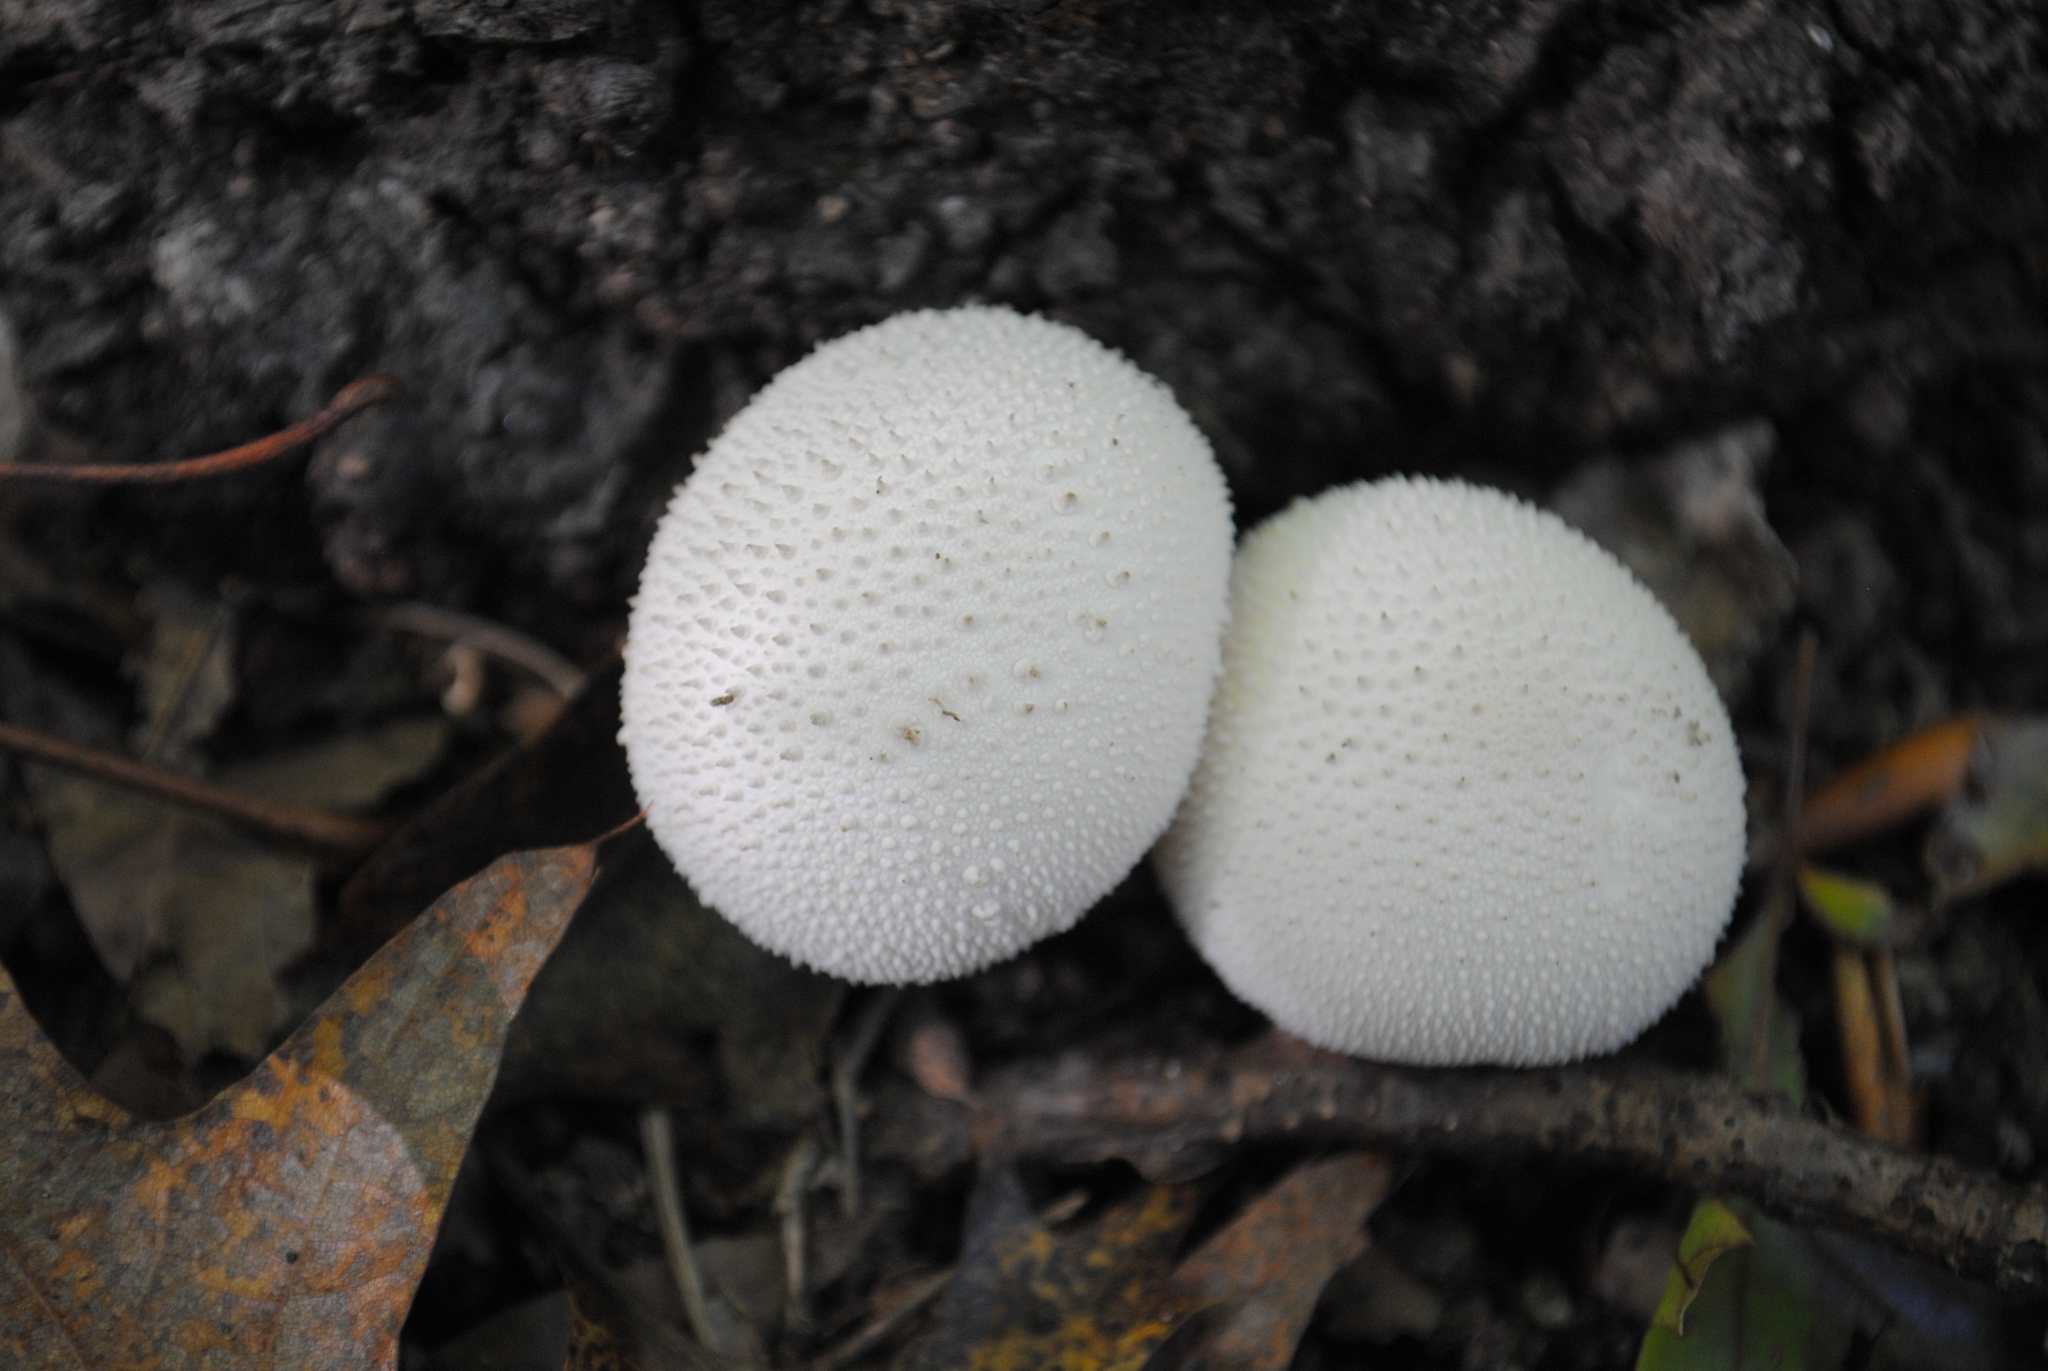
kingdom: Fungi
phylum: Basidiomycota
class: Agaricomycetes
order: Agaricales
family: Lycoperdaceae
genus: Lycoperdon
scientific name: Lycoperdon perlatum
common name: Common puffball
